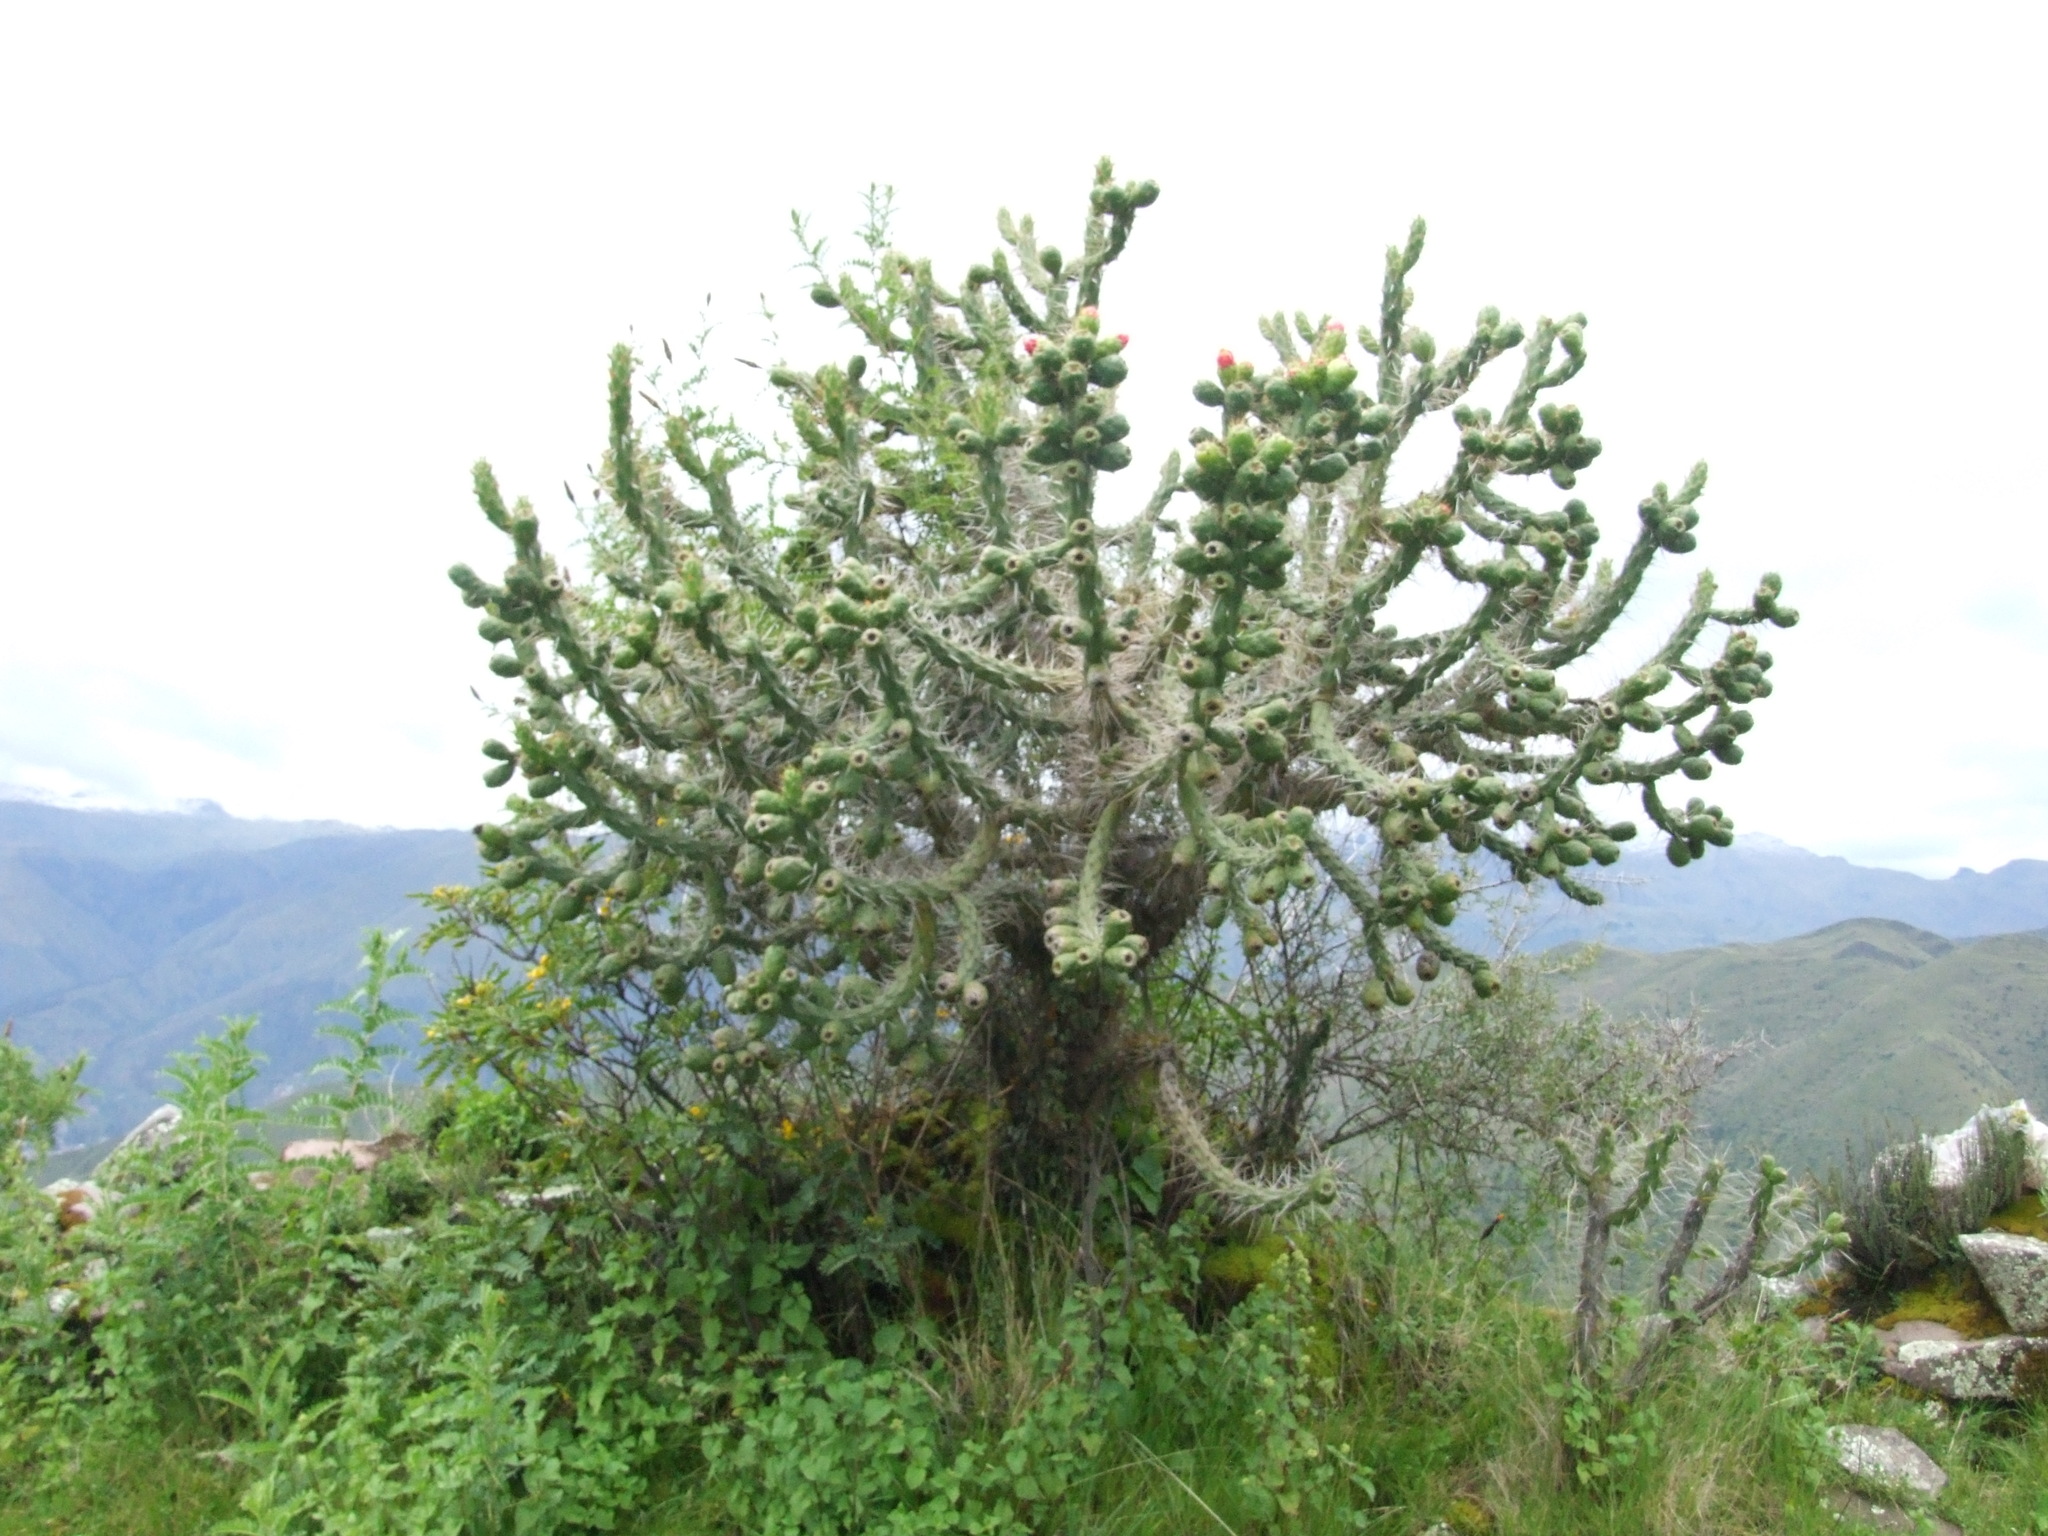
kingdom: Plantae
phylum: Tracheophyta
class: Magnoliopsida
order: Caryophyllales
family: Cactaceae
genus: Austrocylindropuntia
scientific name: Austrocylindropuntia subulata
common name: Eve's needle cactus
